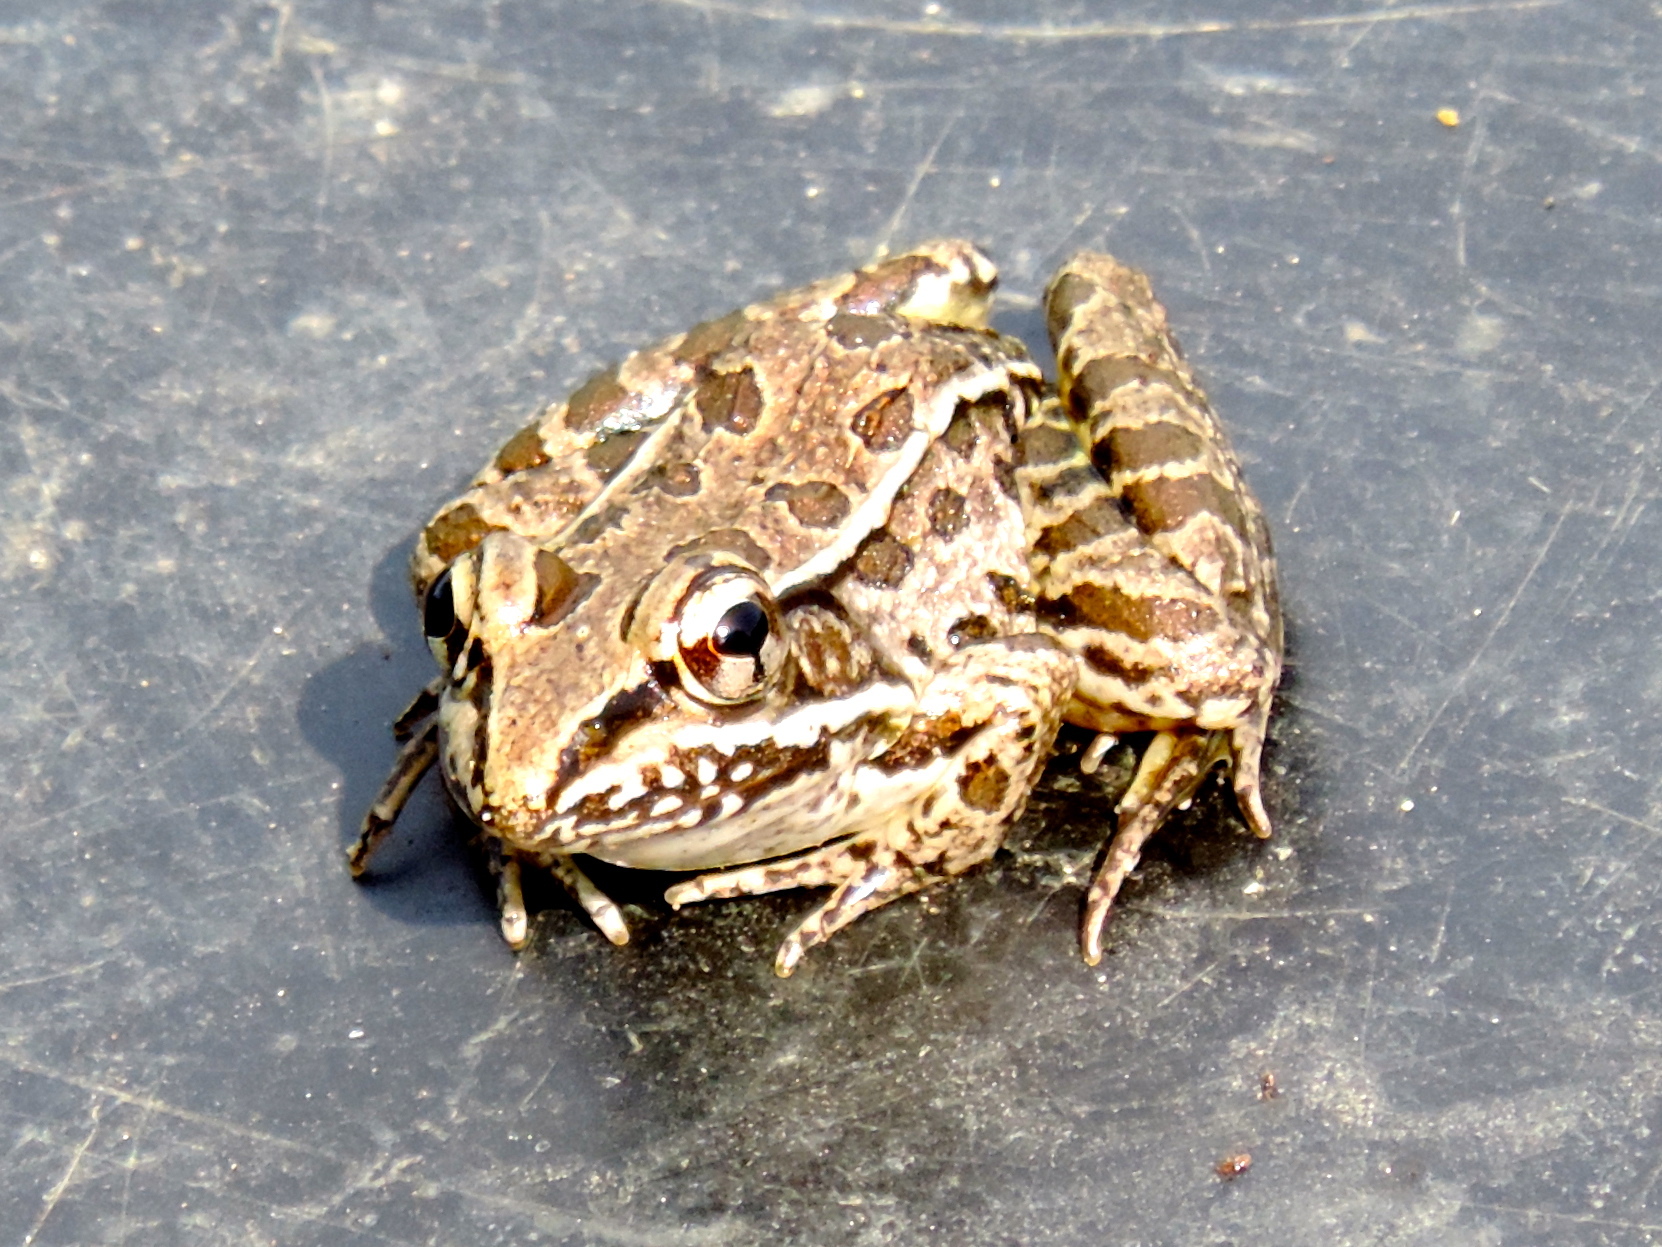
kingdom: Animalia
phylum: Chordata
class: Amphibia
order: Anura
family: Ranidae
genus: Lithobates
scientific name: Lithobates magnaocularis
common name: Northwest mexico leopard frog
